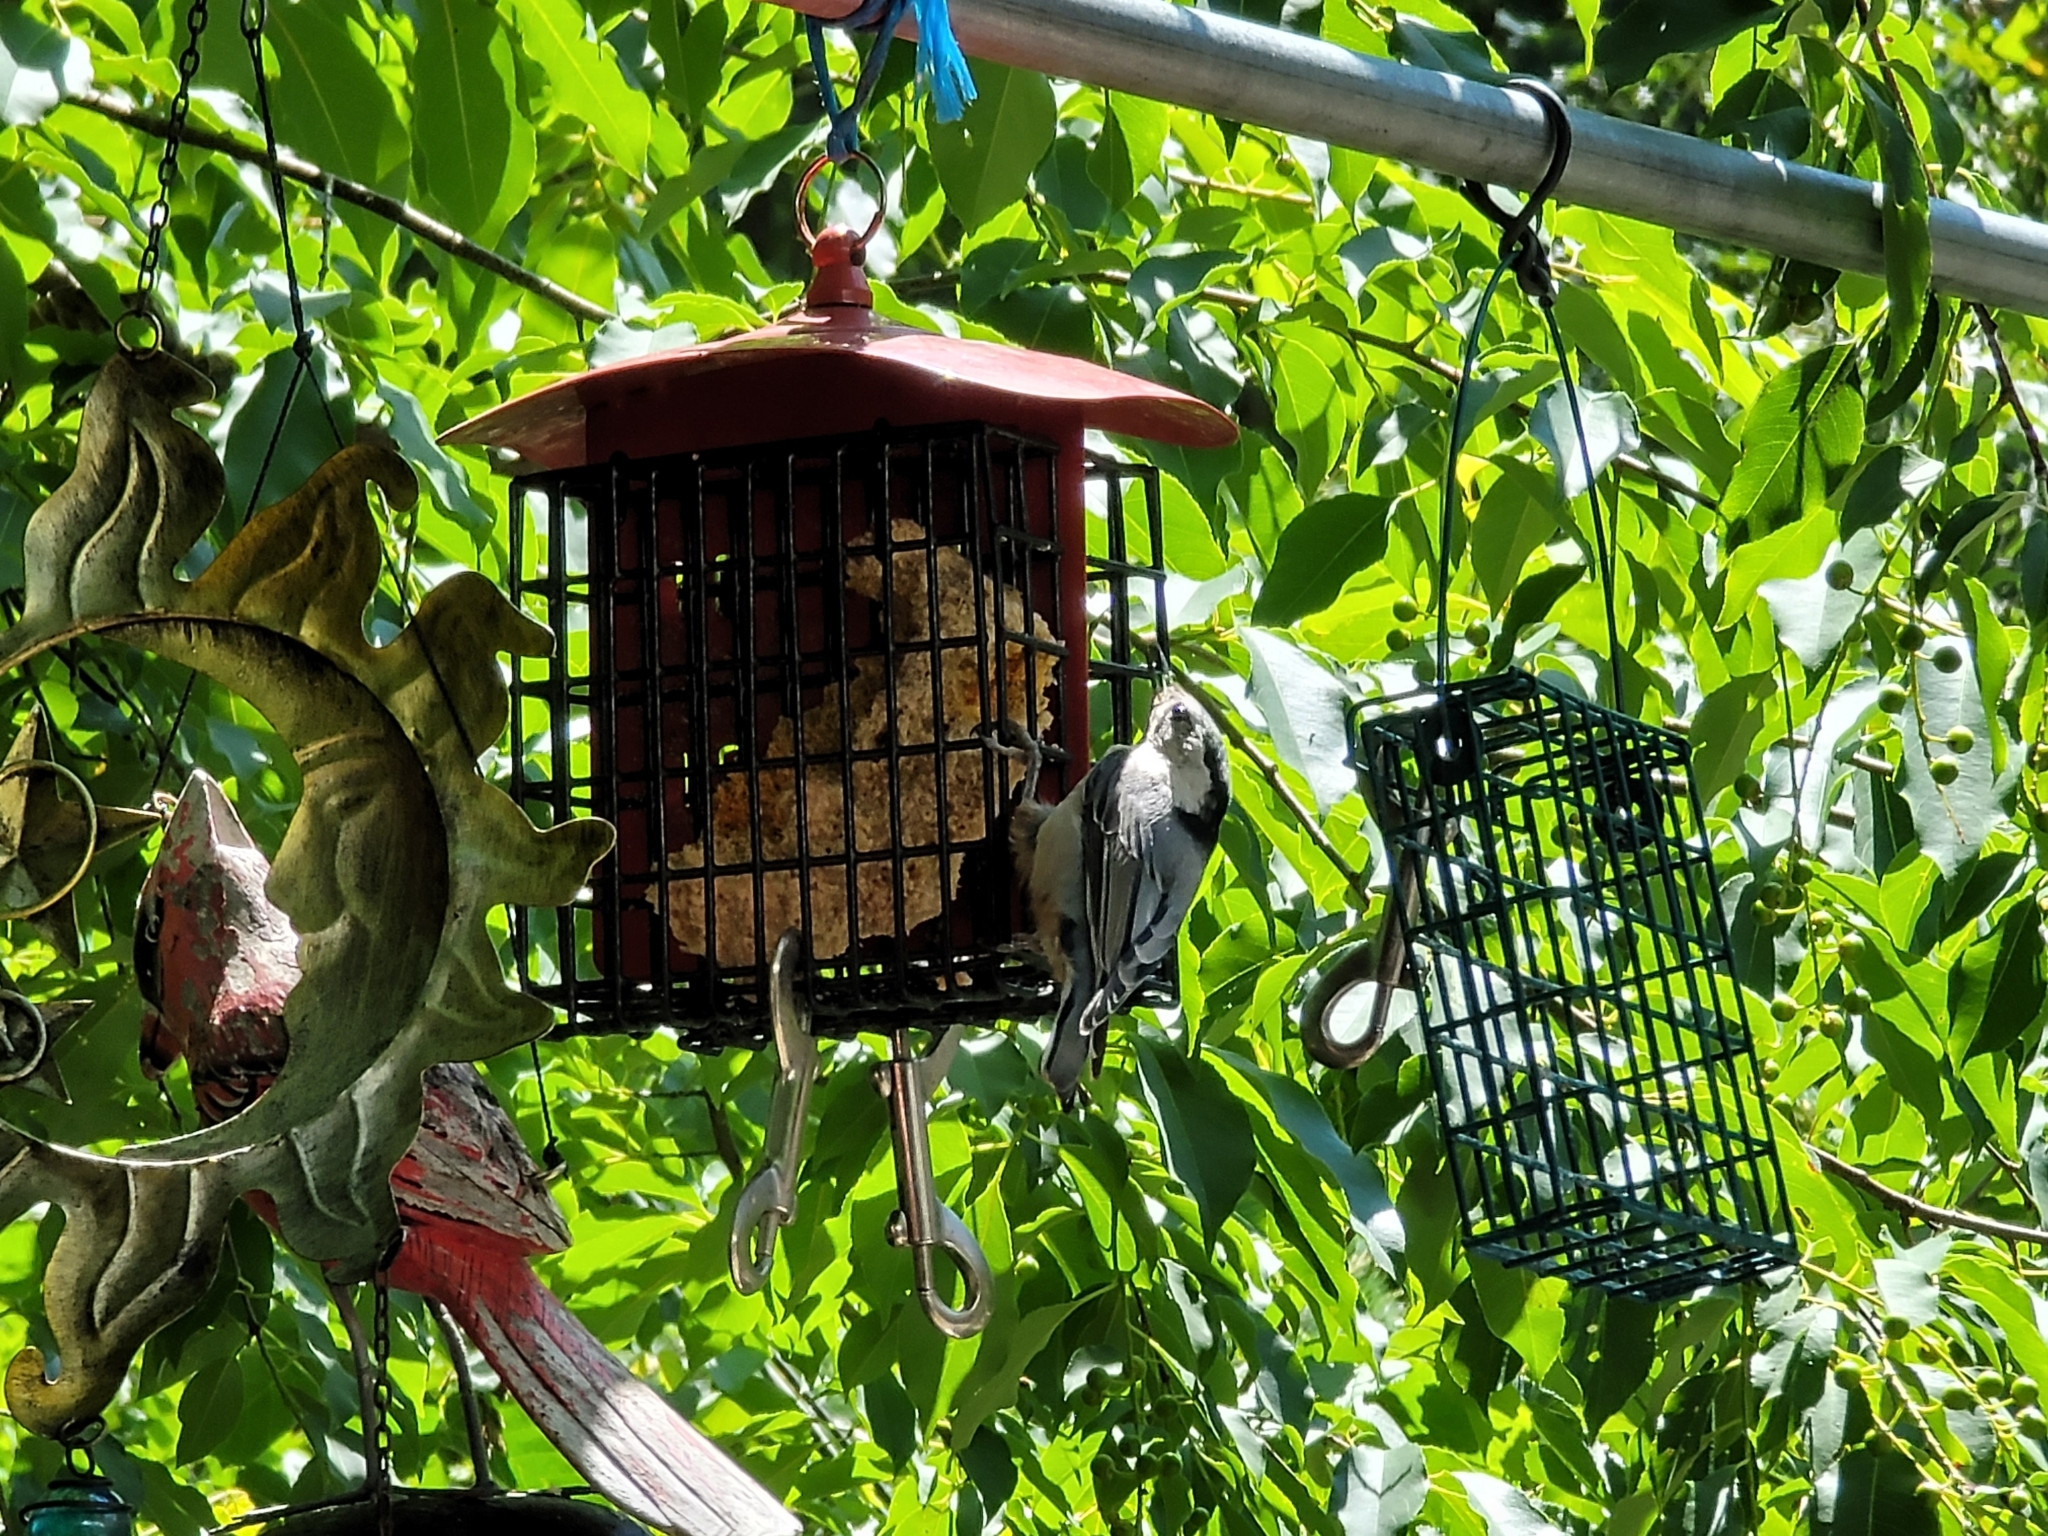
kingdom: Animalia
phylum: Chordata
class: Aves
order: Passeriformes
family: Sittidae
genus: Sitta
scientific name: Sitta carolinensis
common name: White-breasted nuthatch
